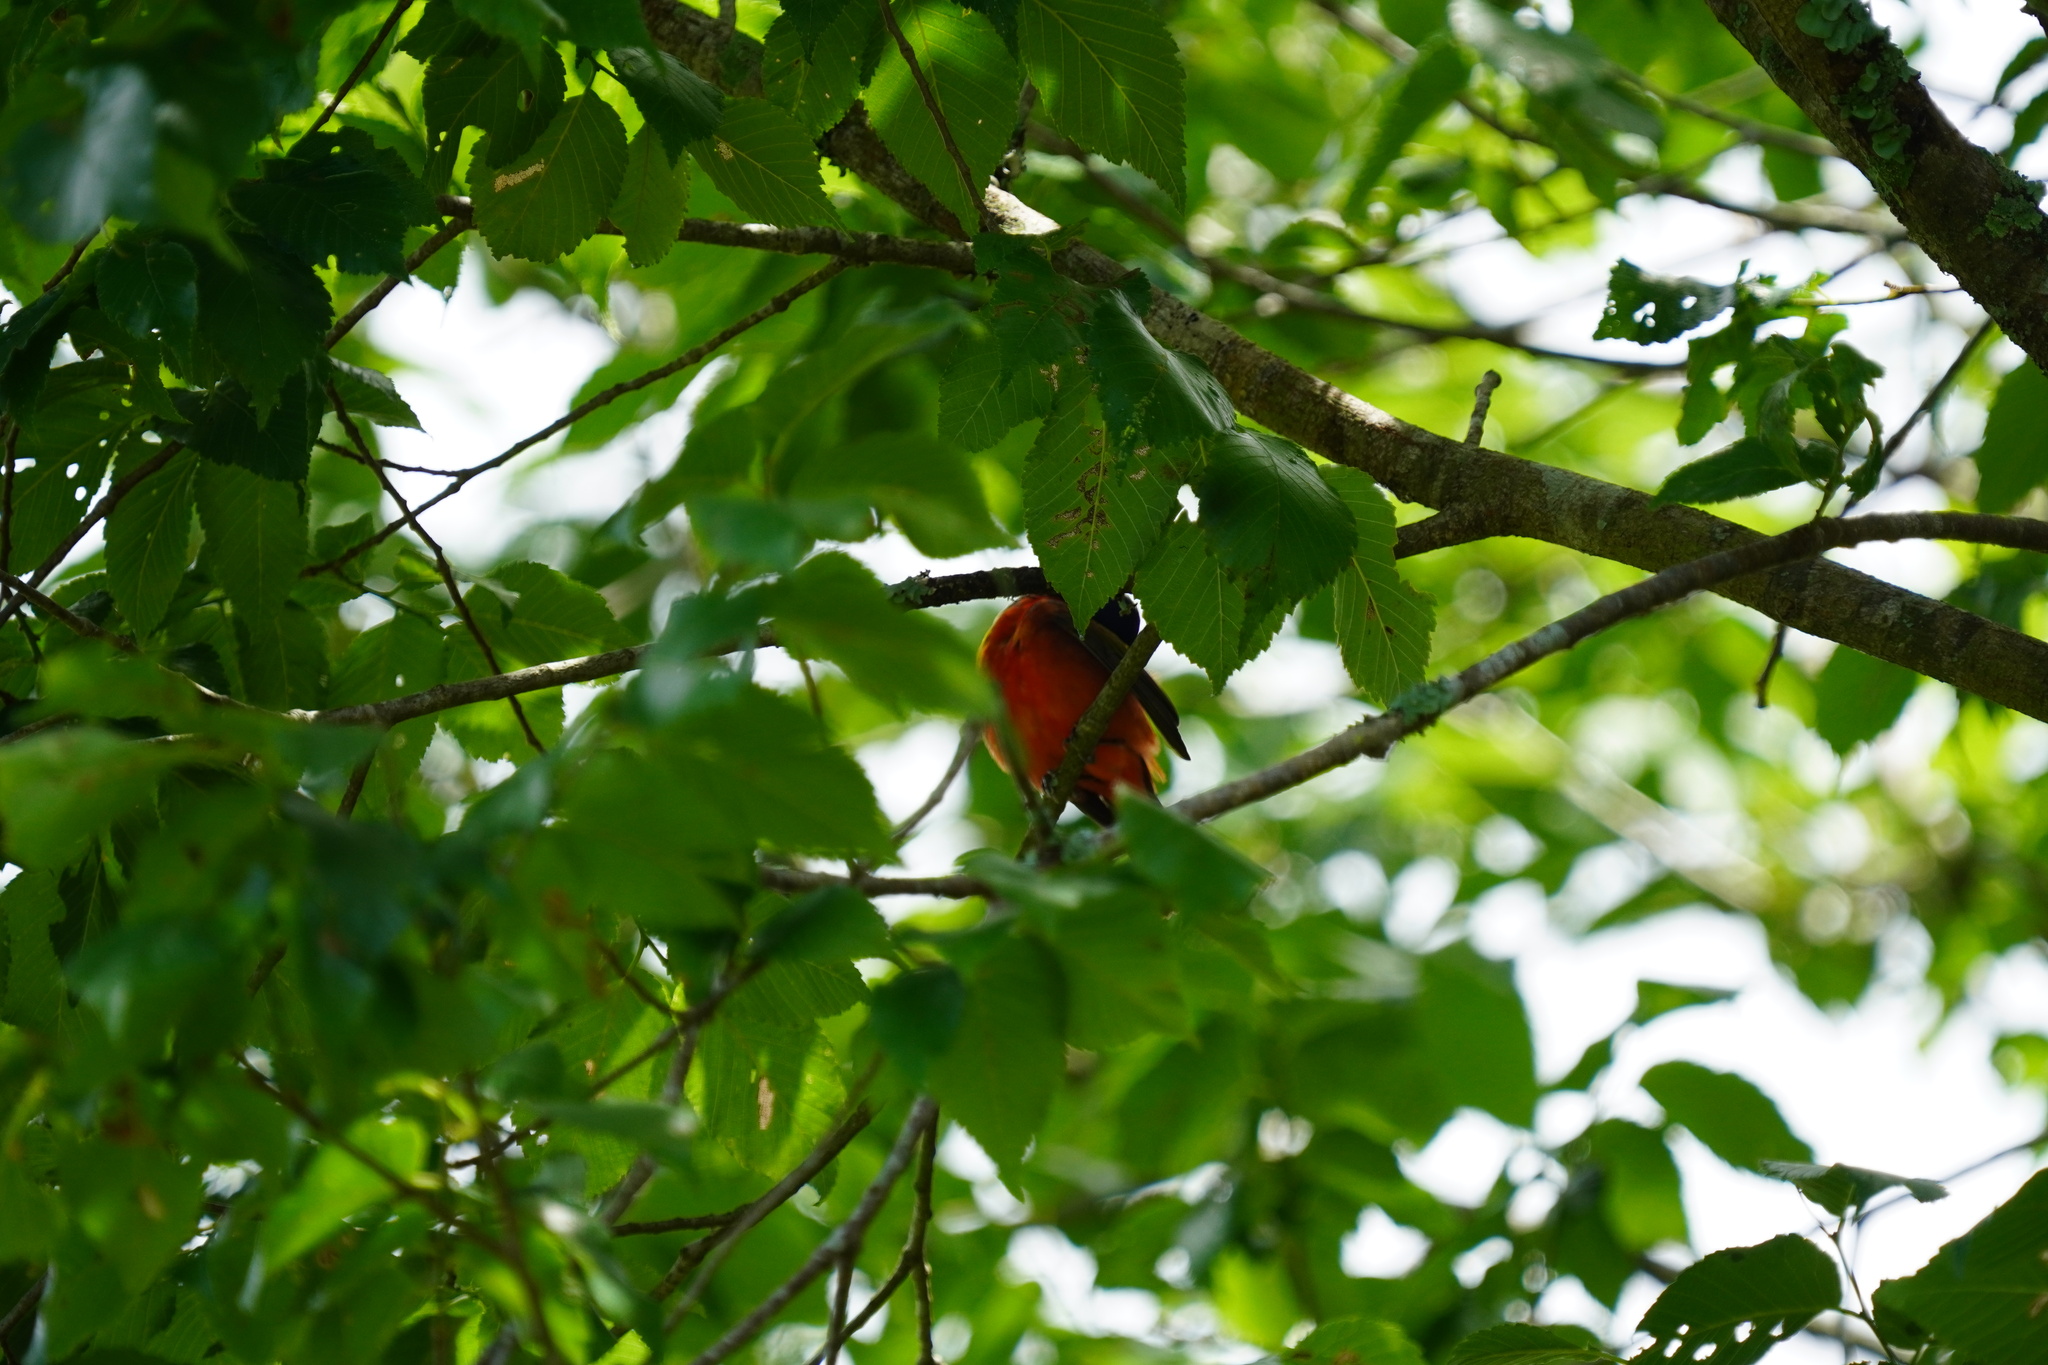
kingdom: Animalia
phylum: Chordata
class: Aves
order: Passeriformes
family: Cardinalidae
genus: Passerina
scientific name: Passerina ciris
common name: Painted bunting
